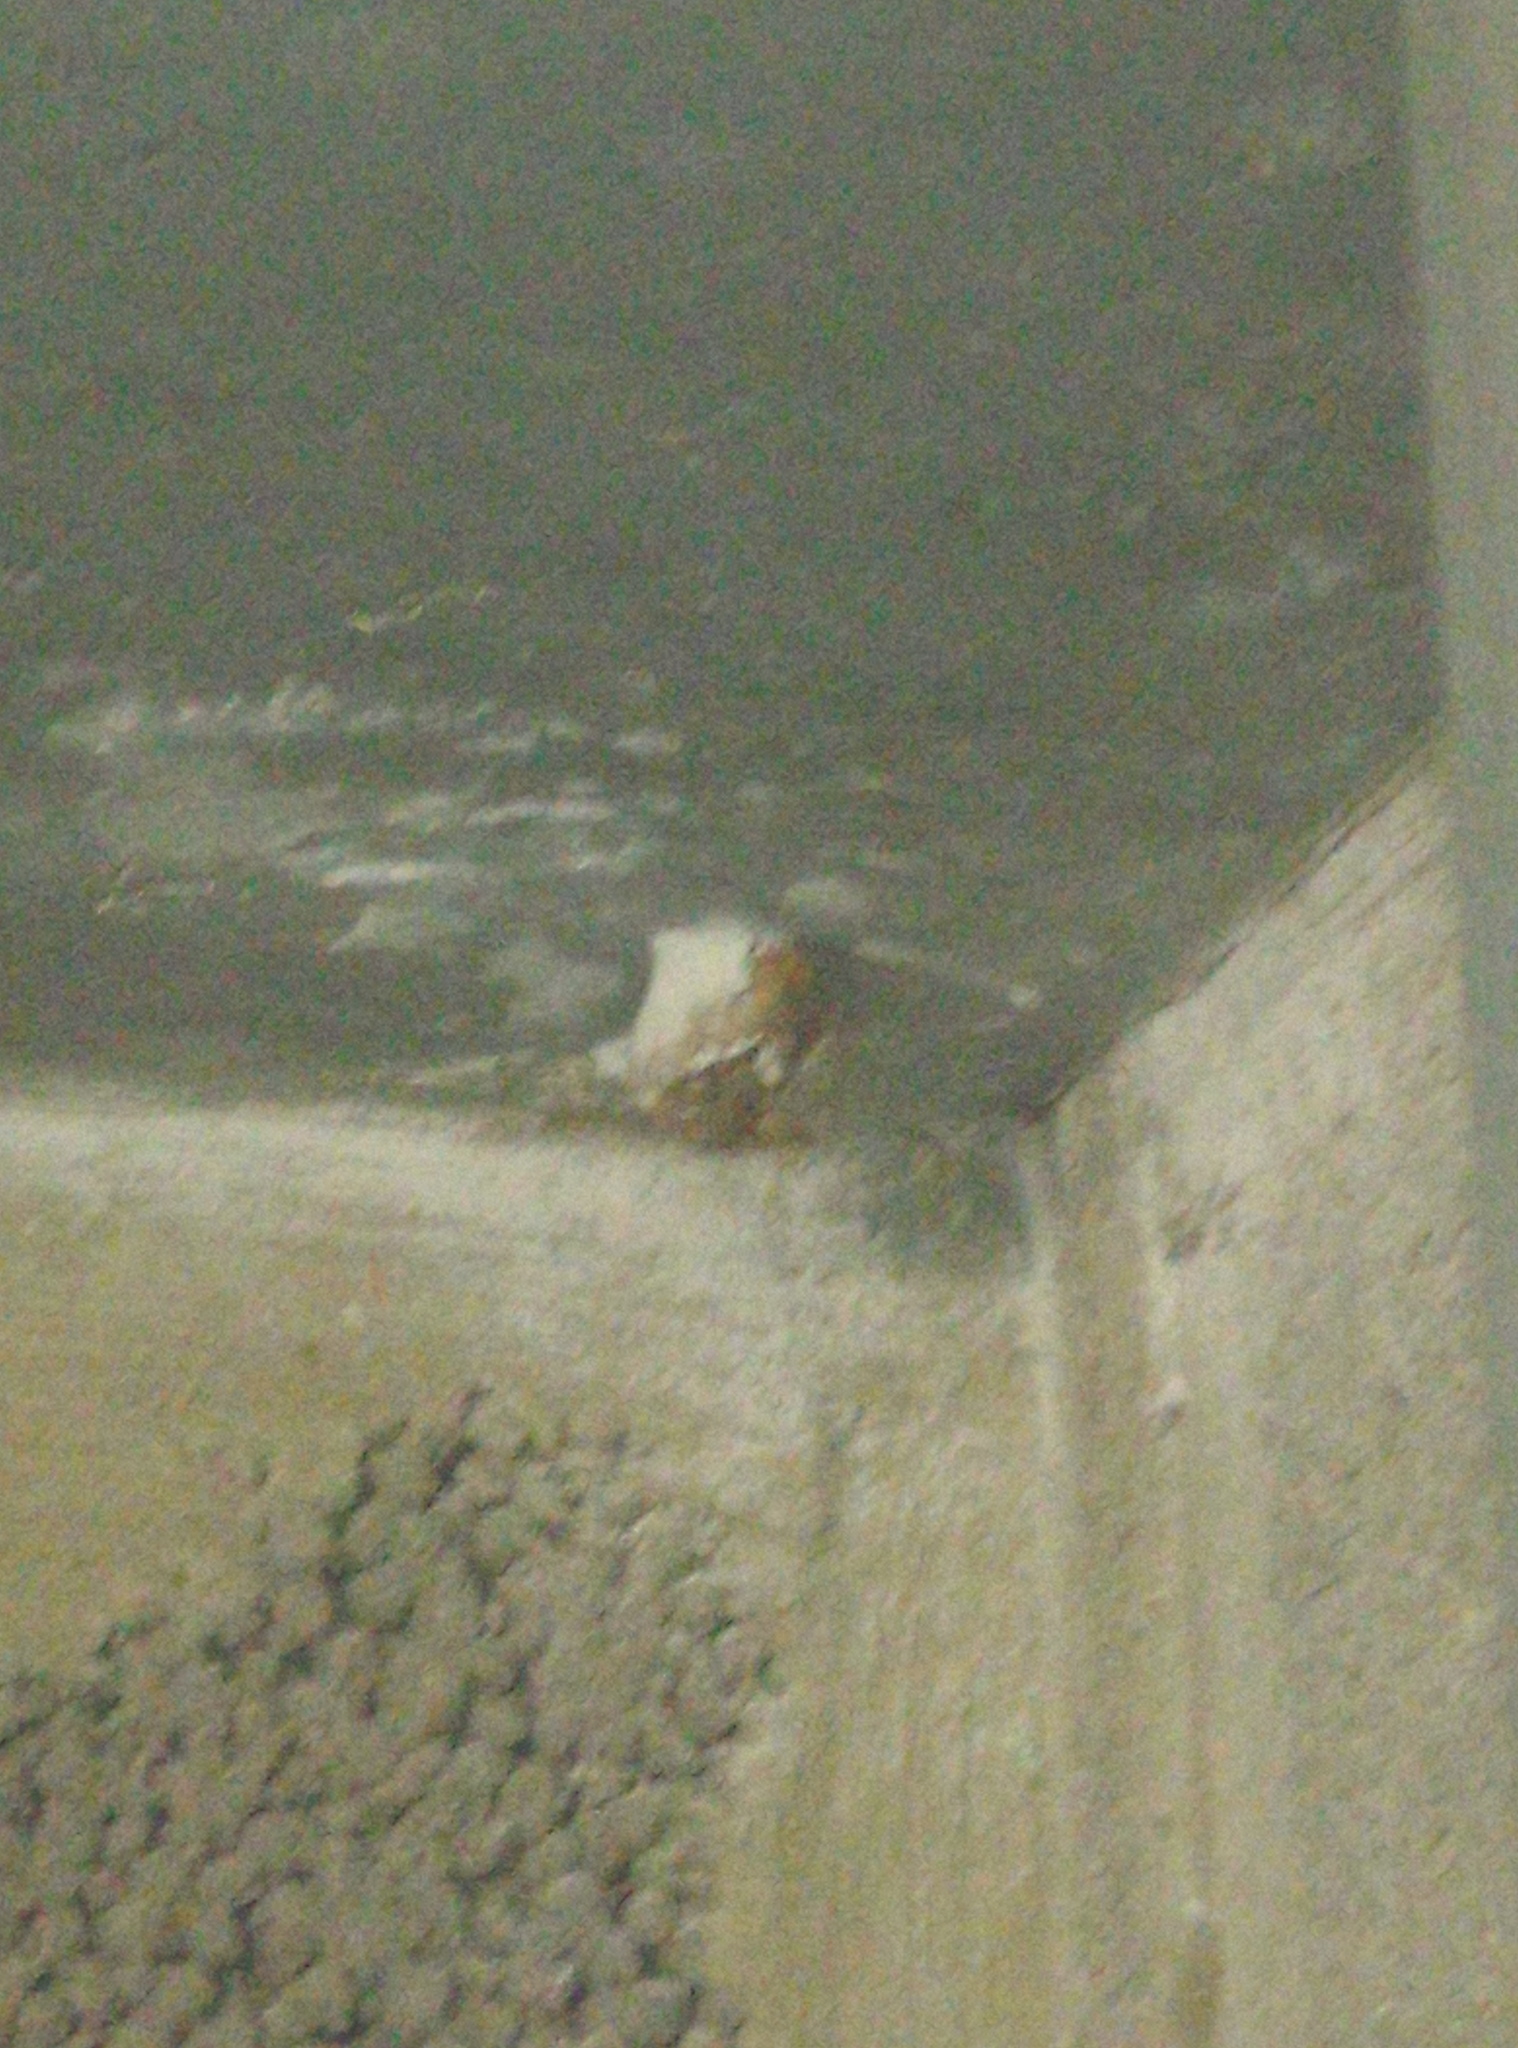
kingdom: Animalia
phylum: Arthropoda
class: Insecta
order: Hymenoptera
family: Vespidae
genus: Vespa
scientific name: Vespa crabro
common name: Hornet
